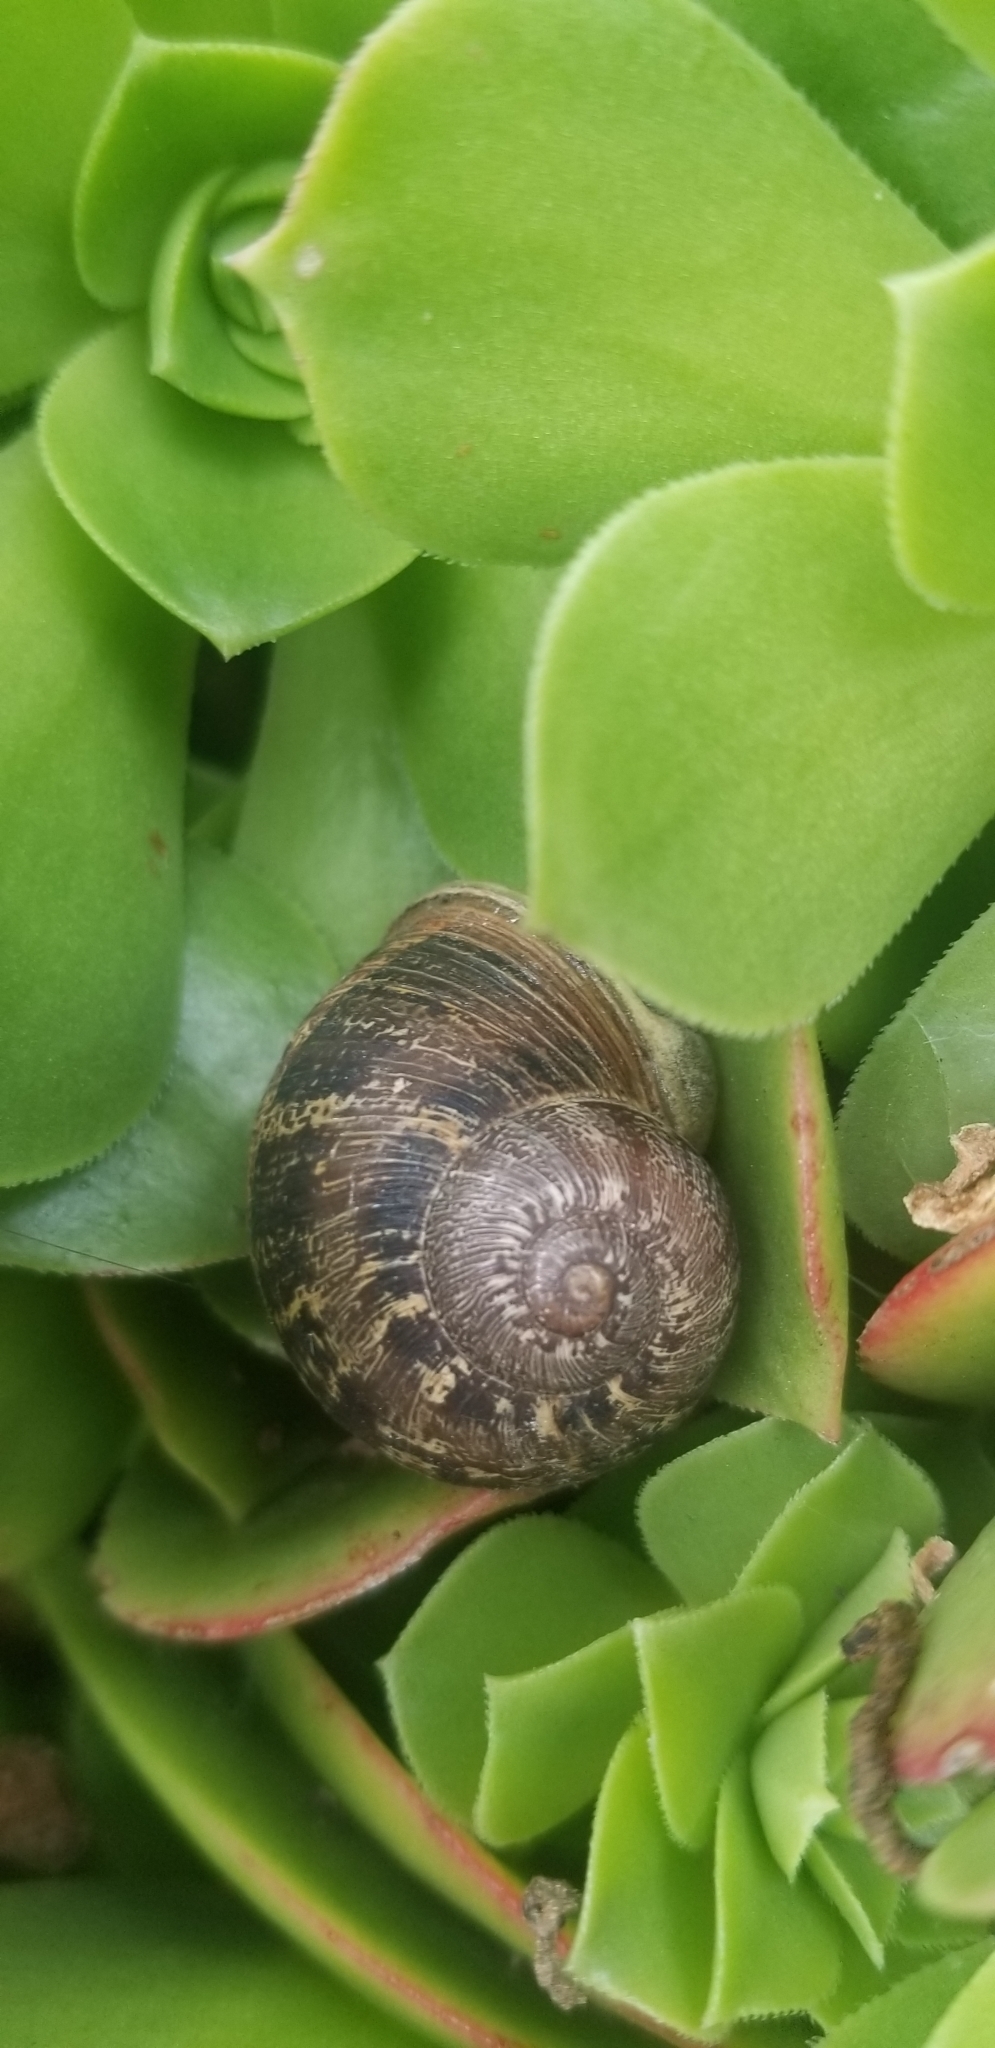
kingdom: Animalia
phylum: Mollusca
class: Gastropoda
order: Stylommatophora
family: Helicidae
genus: Cornu
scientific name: Cornu aspersum
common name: Brown garden snail
